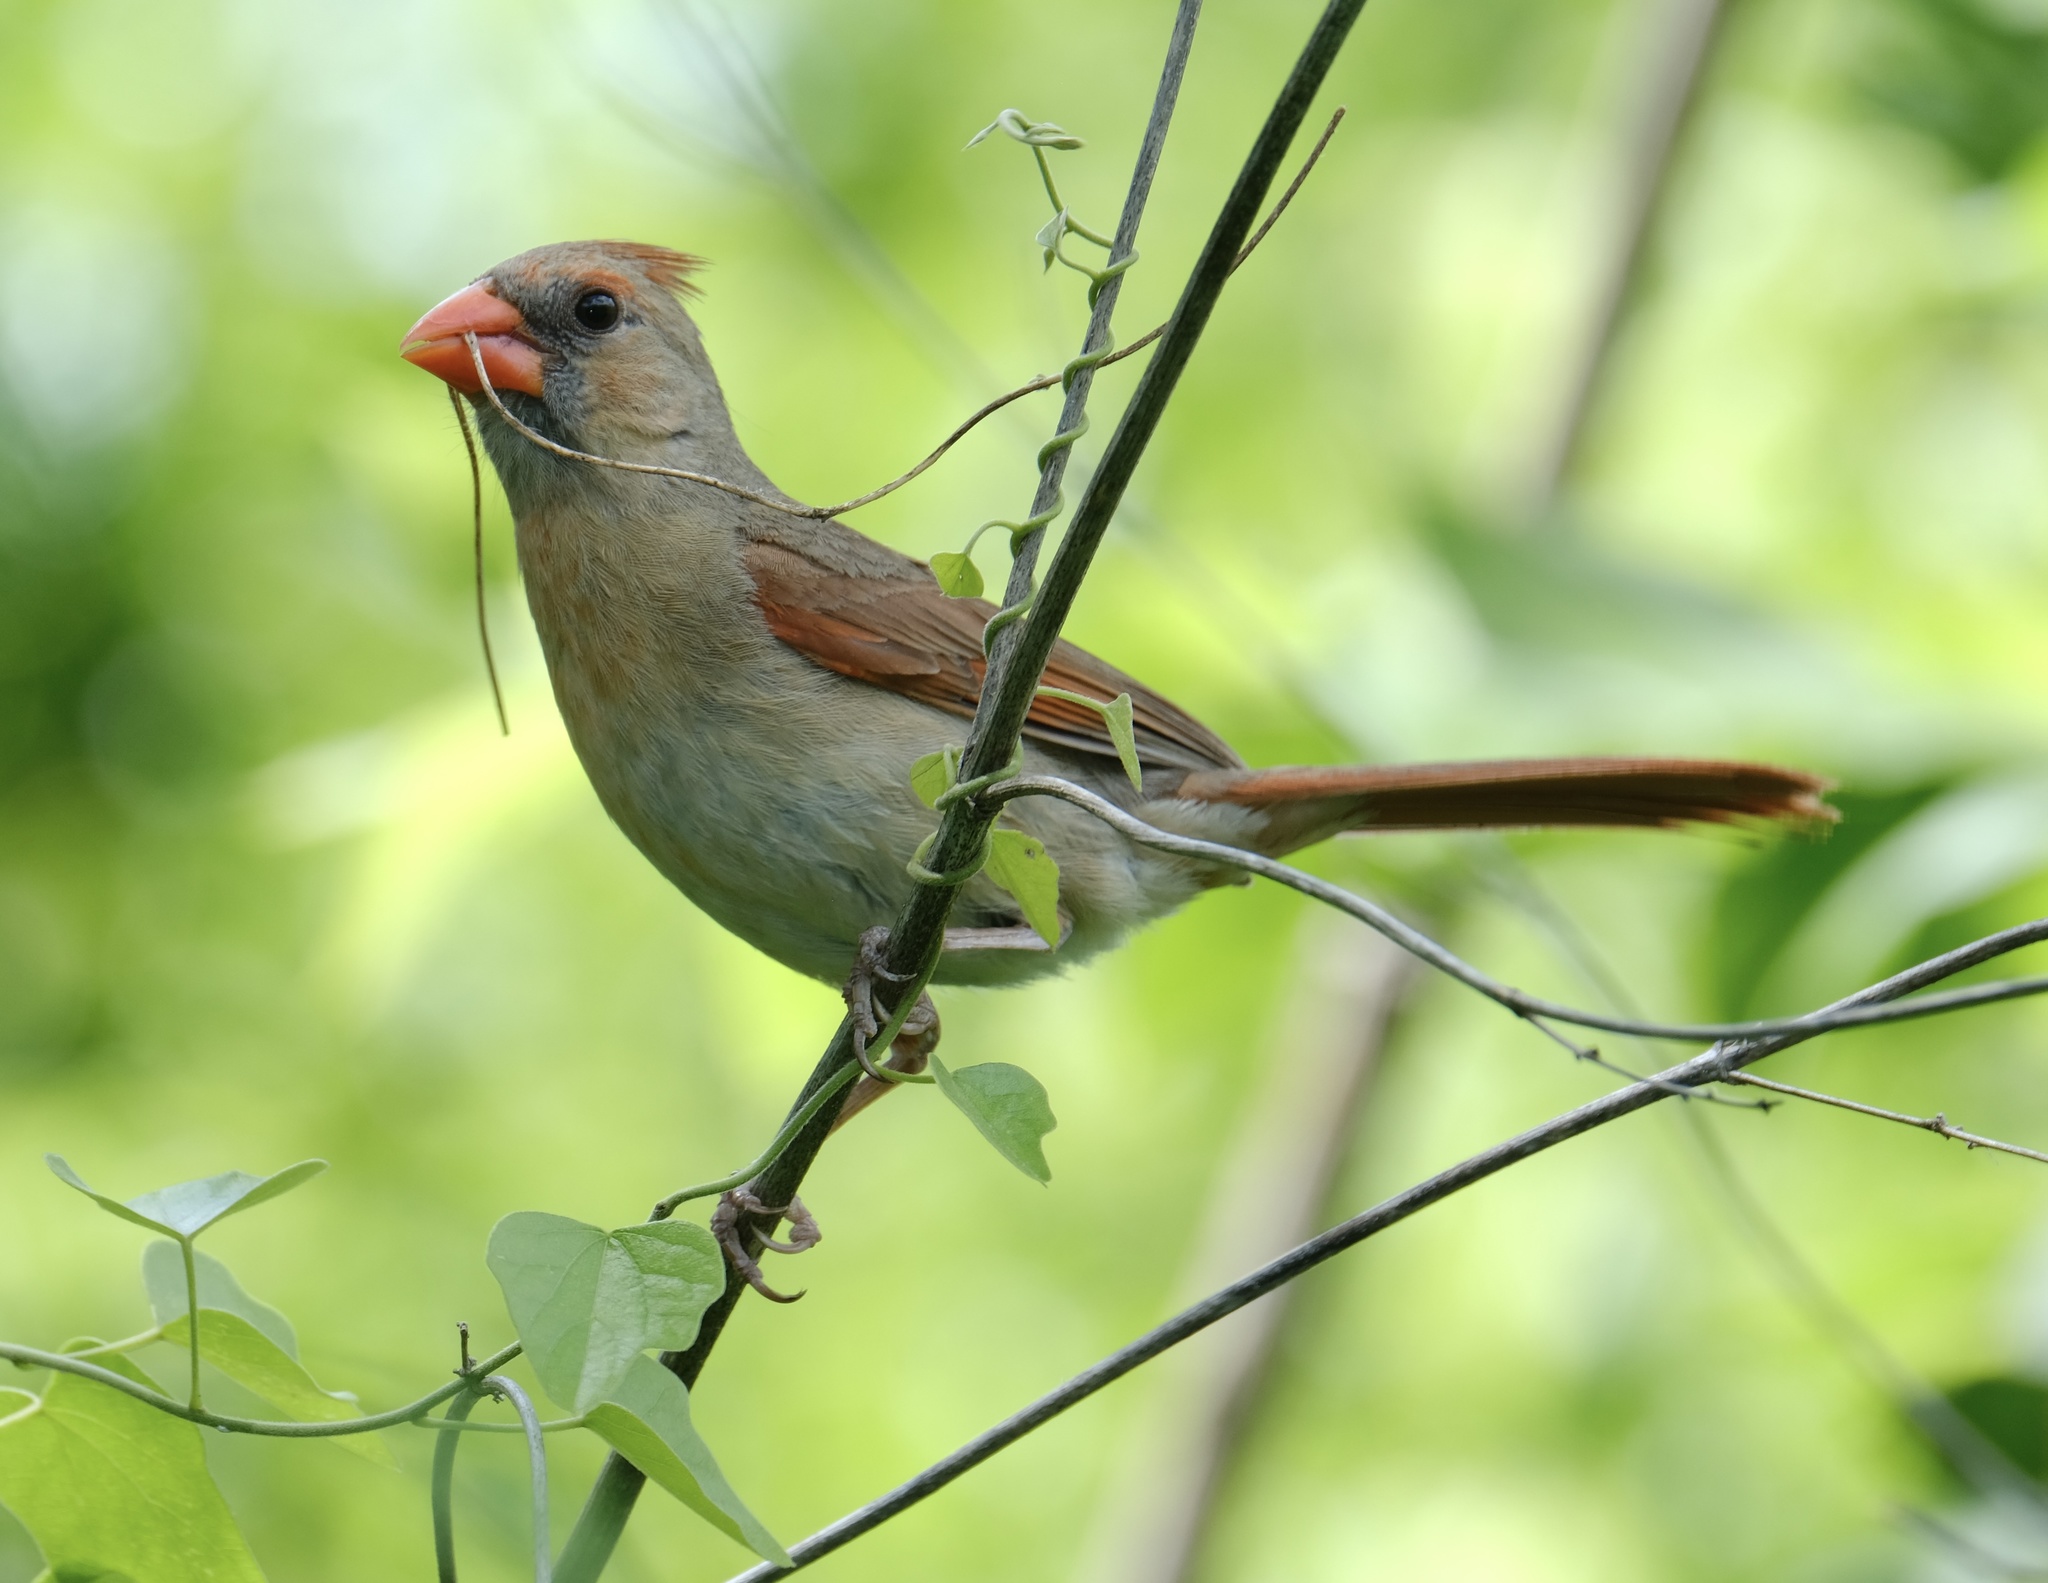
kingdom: Animalia
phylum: Chordata
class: Aves
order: Passeriformes
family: Cardinalidae
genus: Cardinalis
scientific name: Cardinalis cardinalis
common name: Northern cardinal
